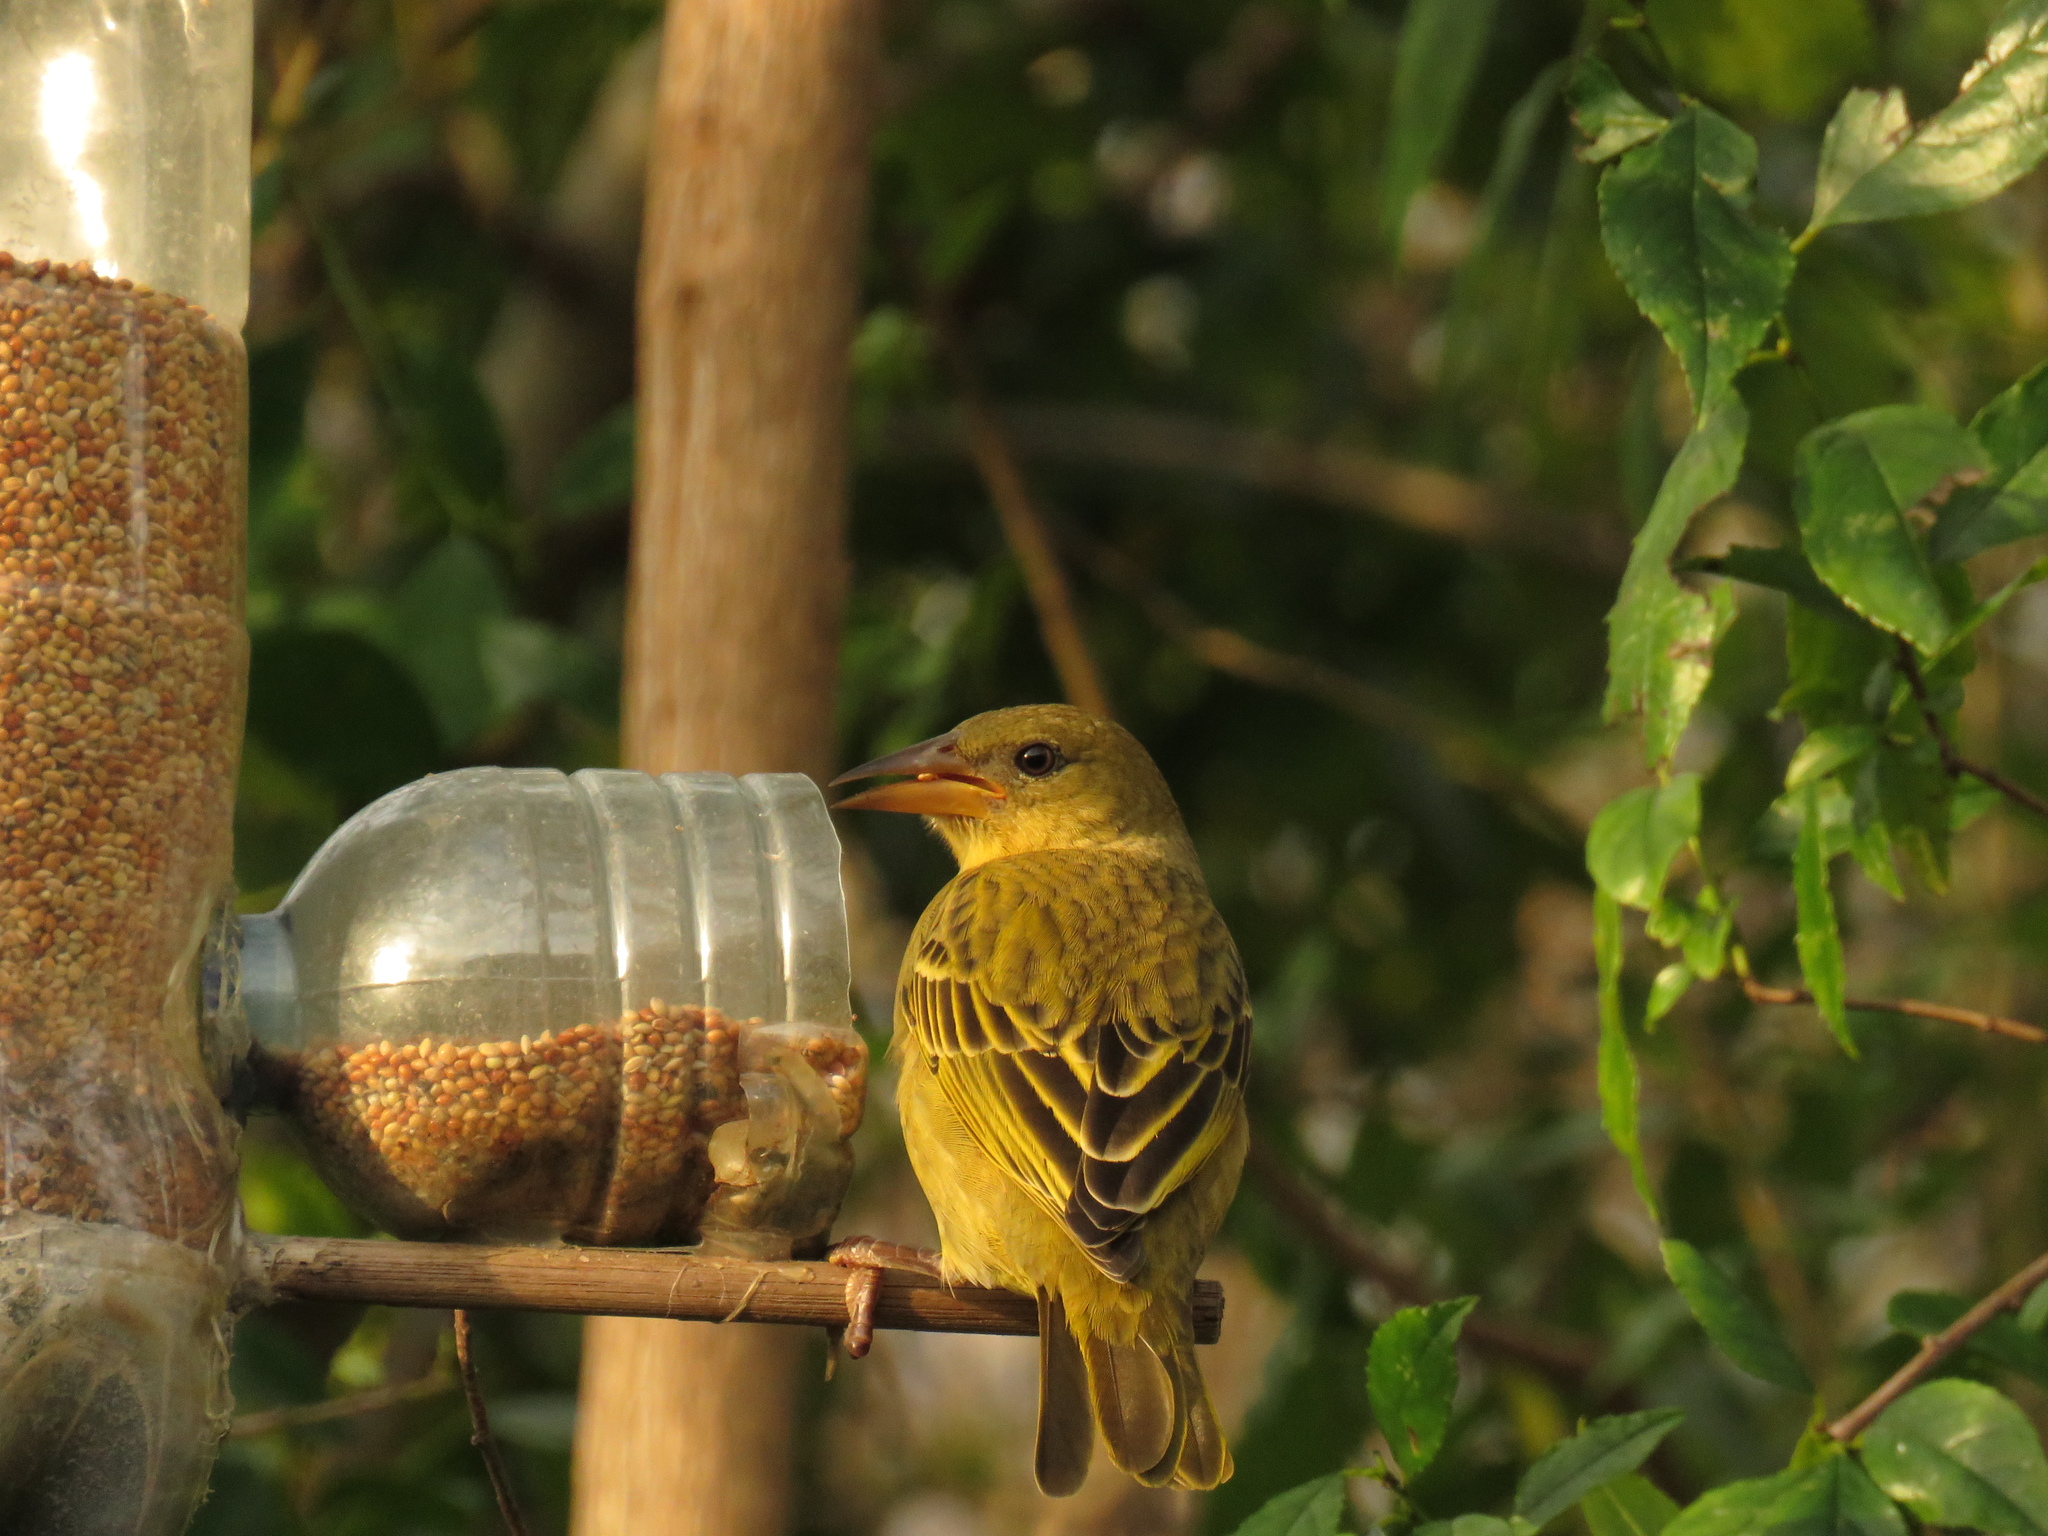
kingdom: Animalia
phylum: Chordata
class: Aves
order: Passeriformes
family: Ploceidae
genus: Ploceus
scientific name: Ploceus capensis
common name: Cape weaver
